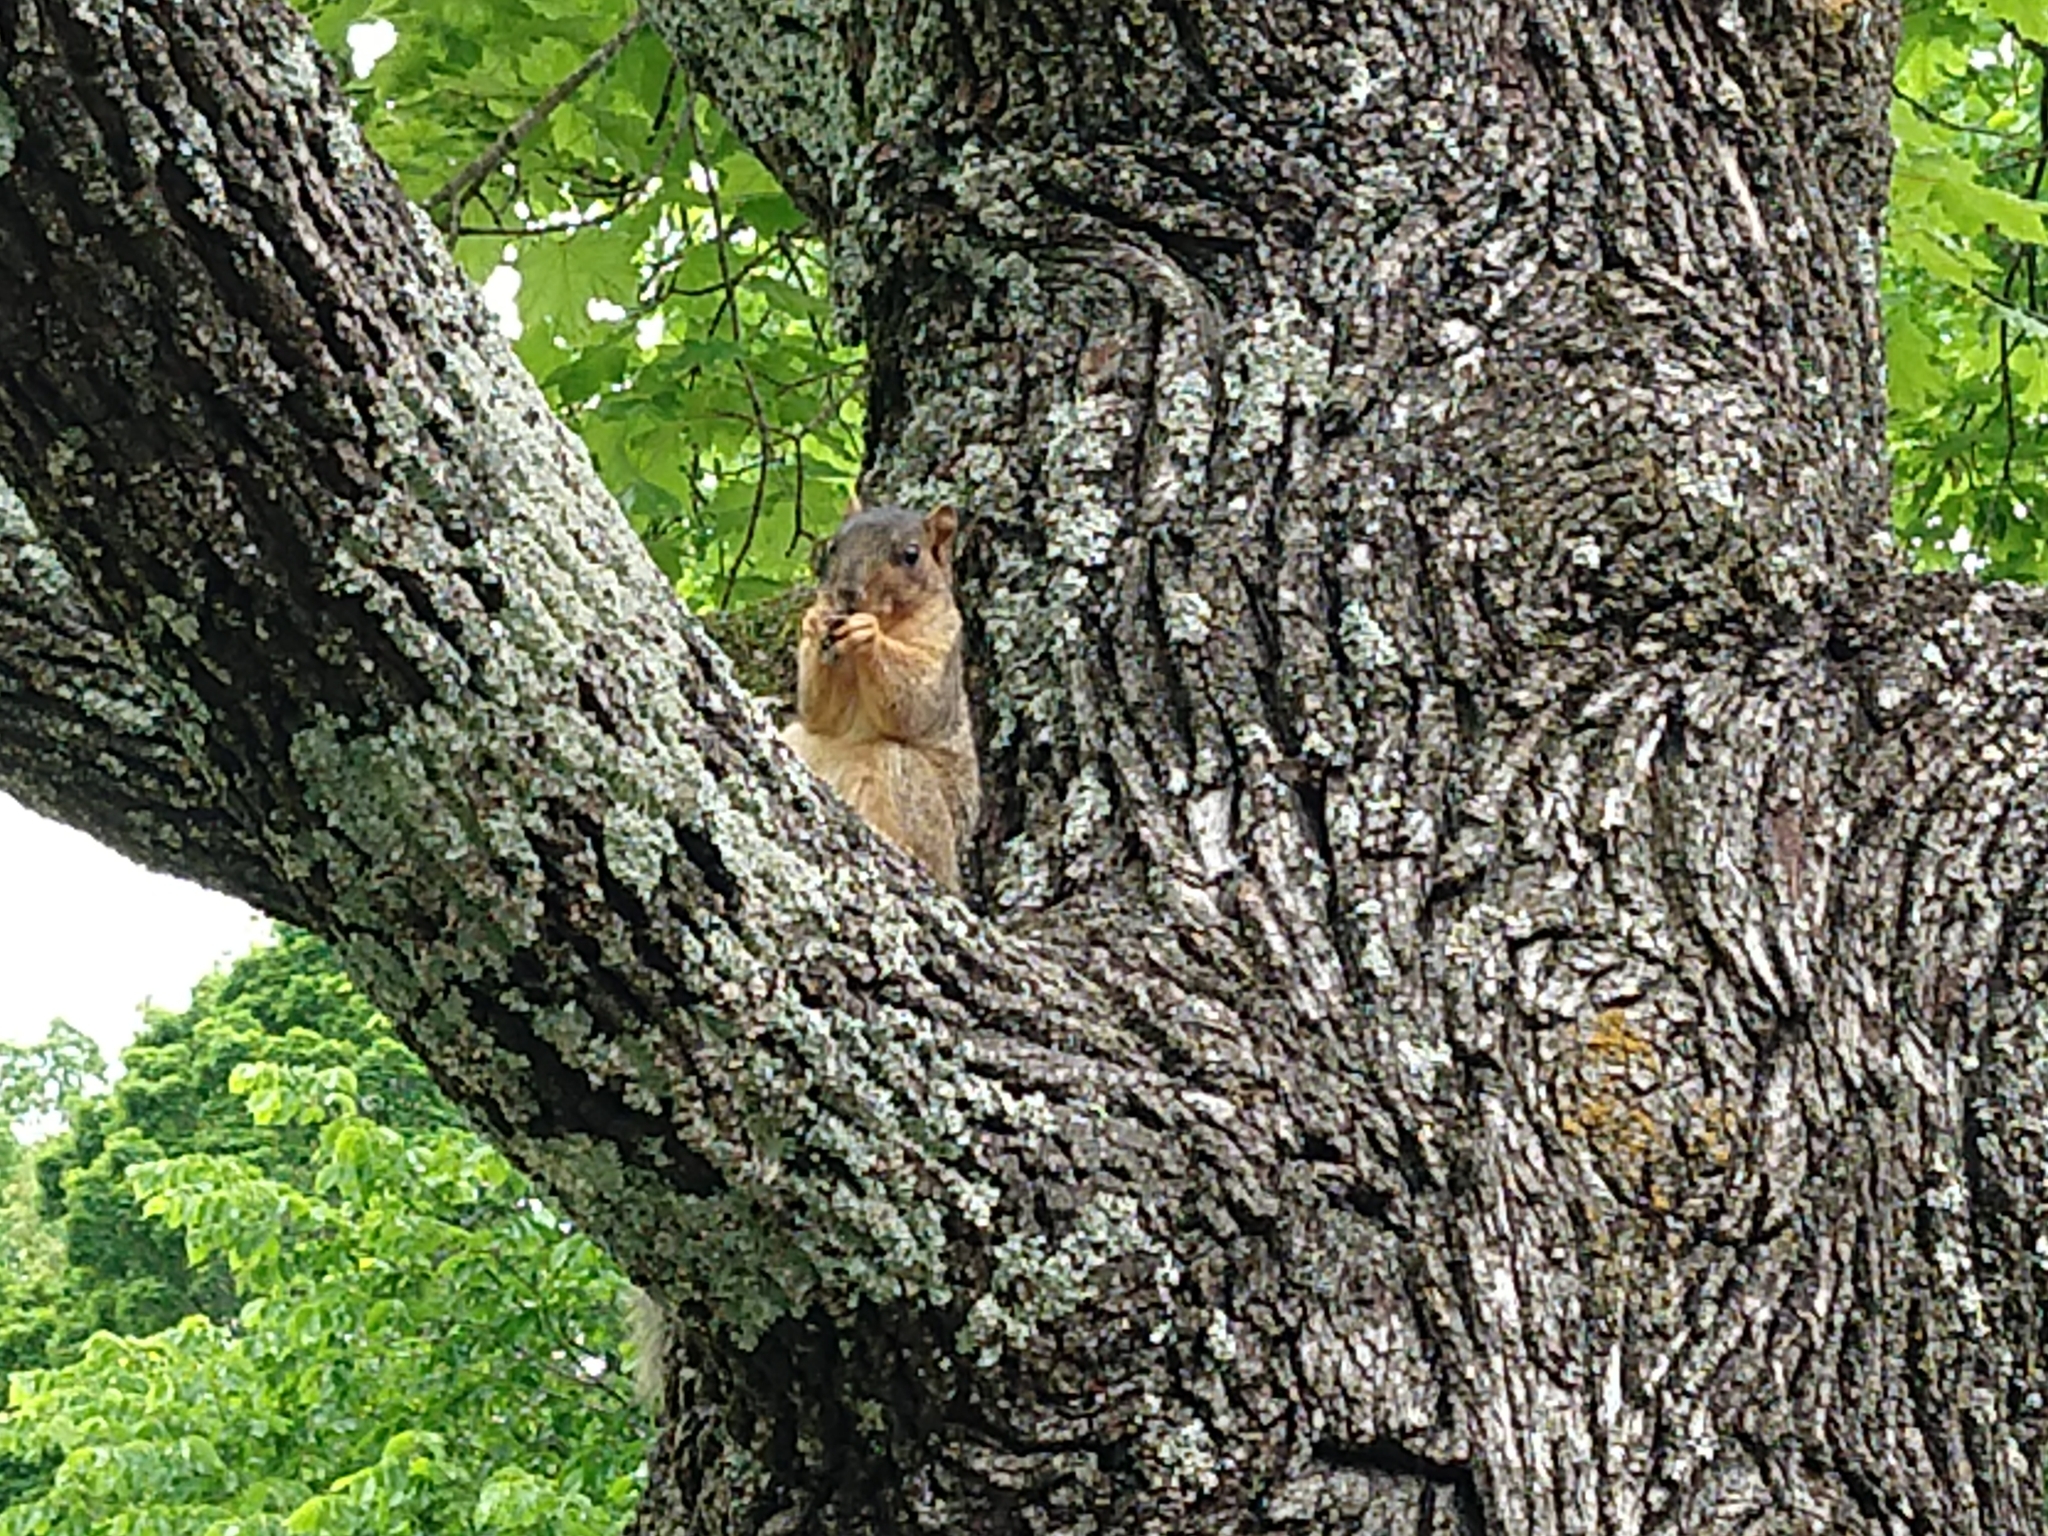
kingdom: Animalia
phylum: Chordata
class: Mammalia
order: Rodentia
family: Sciuridae
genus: Sciurus
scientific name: Sciurus niger
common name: Fox squirrel
